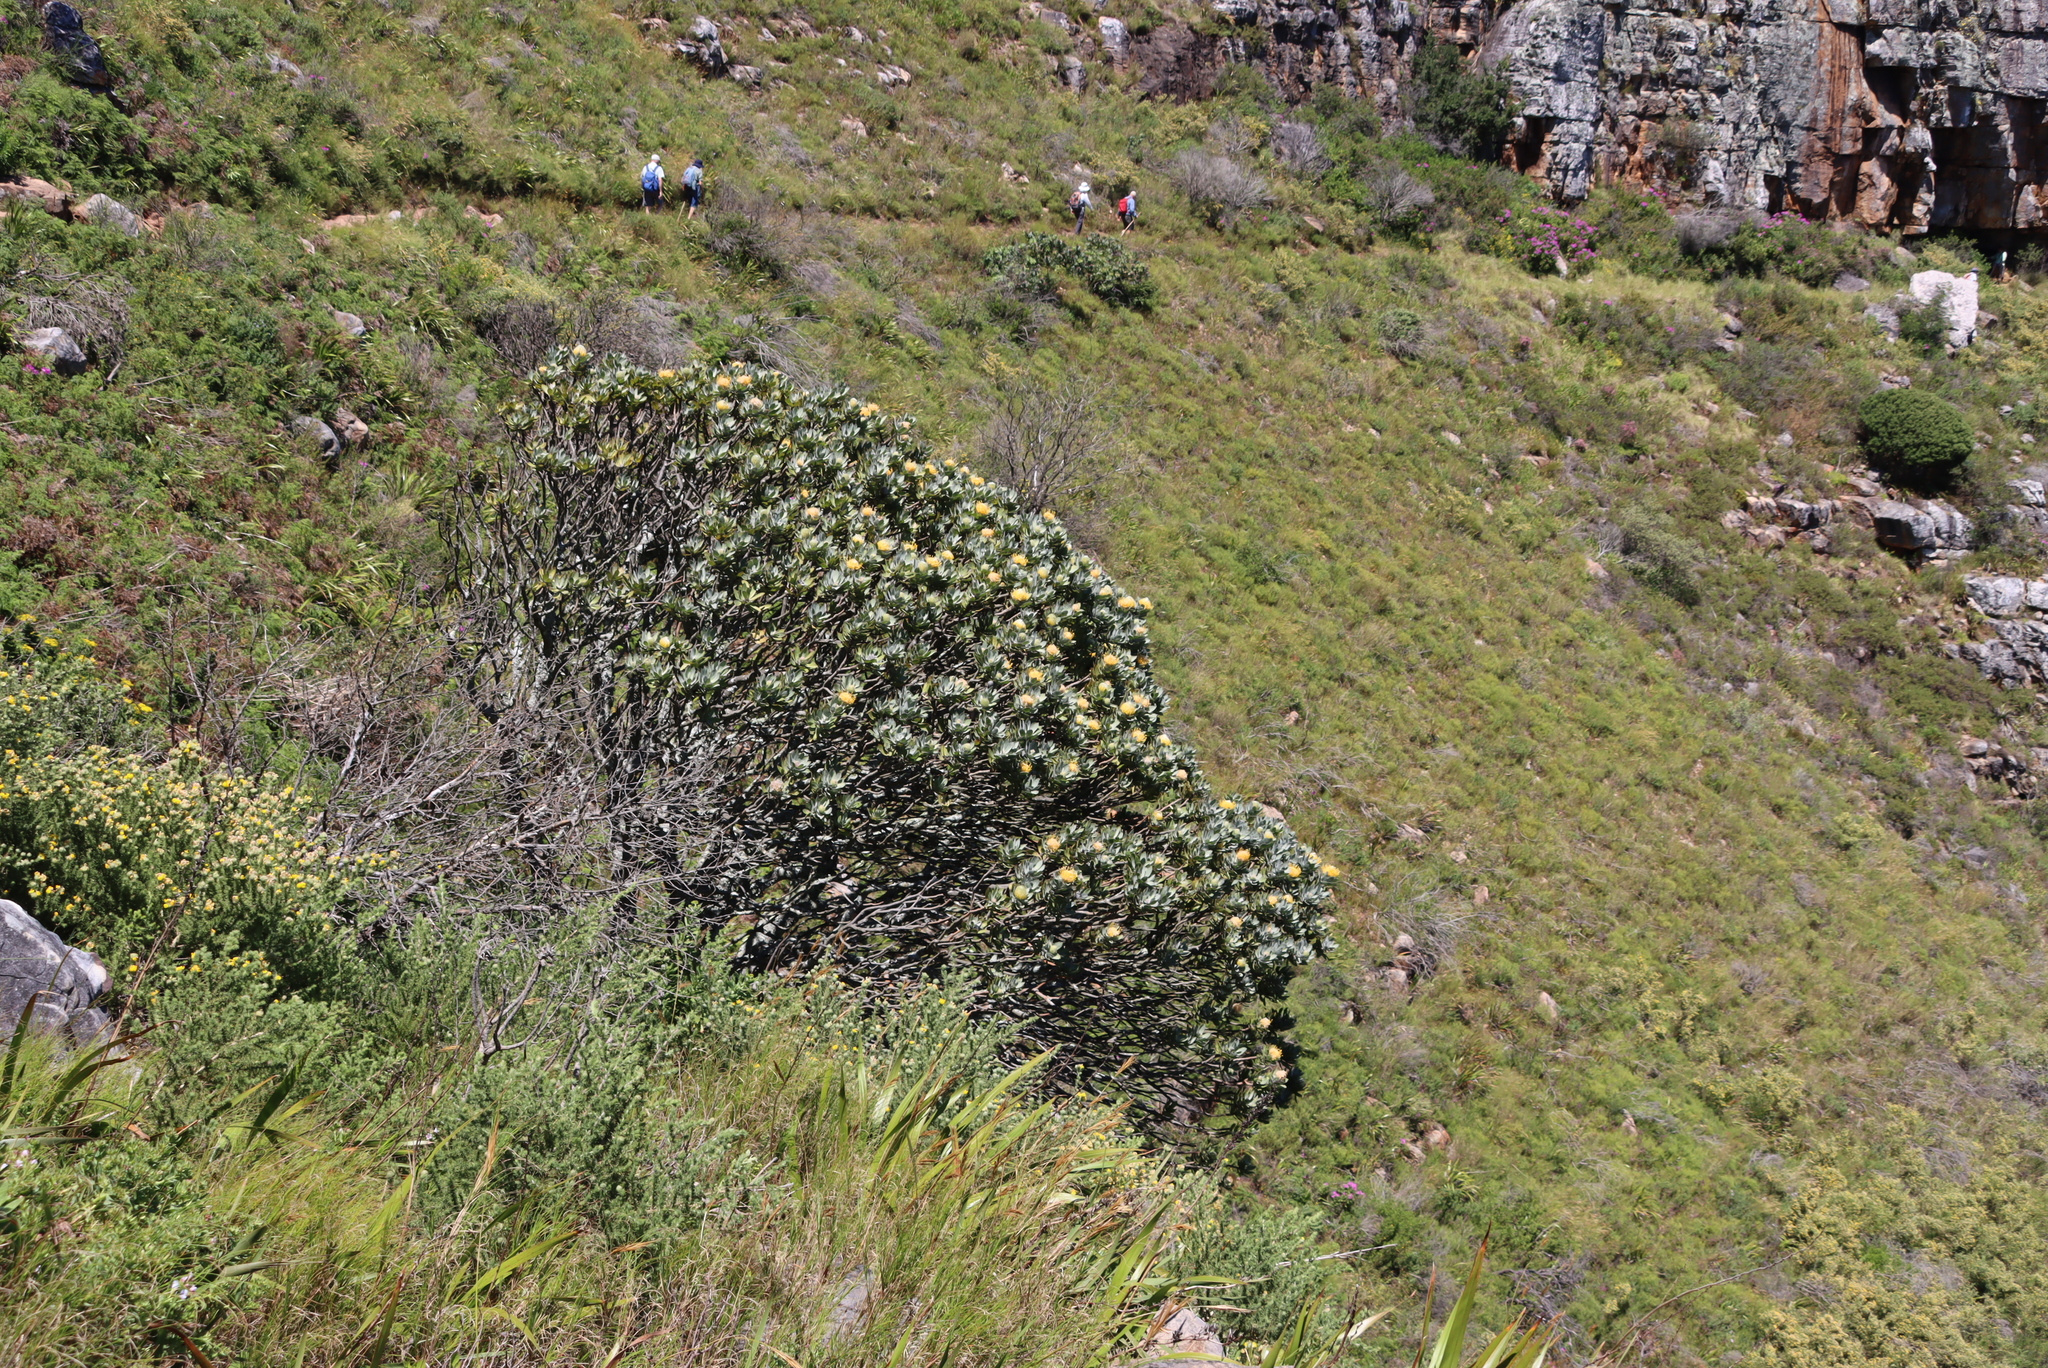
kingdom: Plantae
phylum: Tracheophyta
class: Magnoliopsida
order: Proteales
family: Proteaceae
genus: Leucospermum
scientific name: Leucospermum conocarpodendron
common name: Tree pincushion
